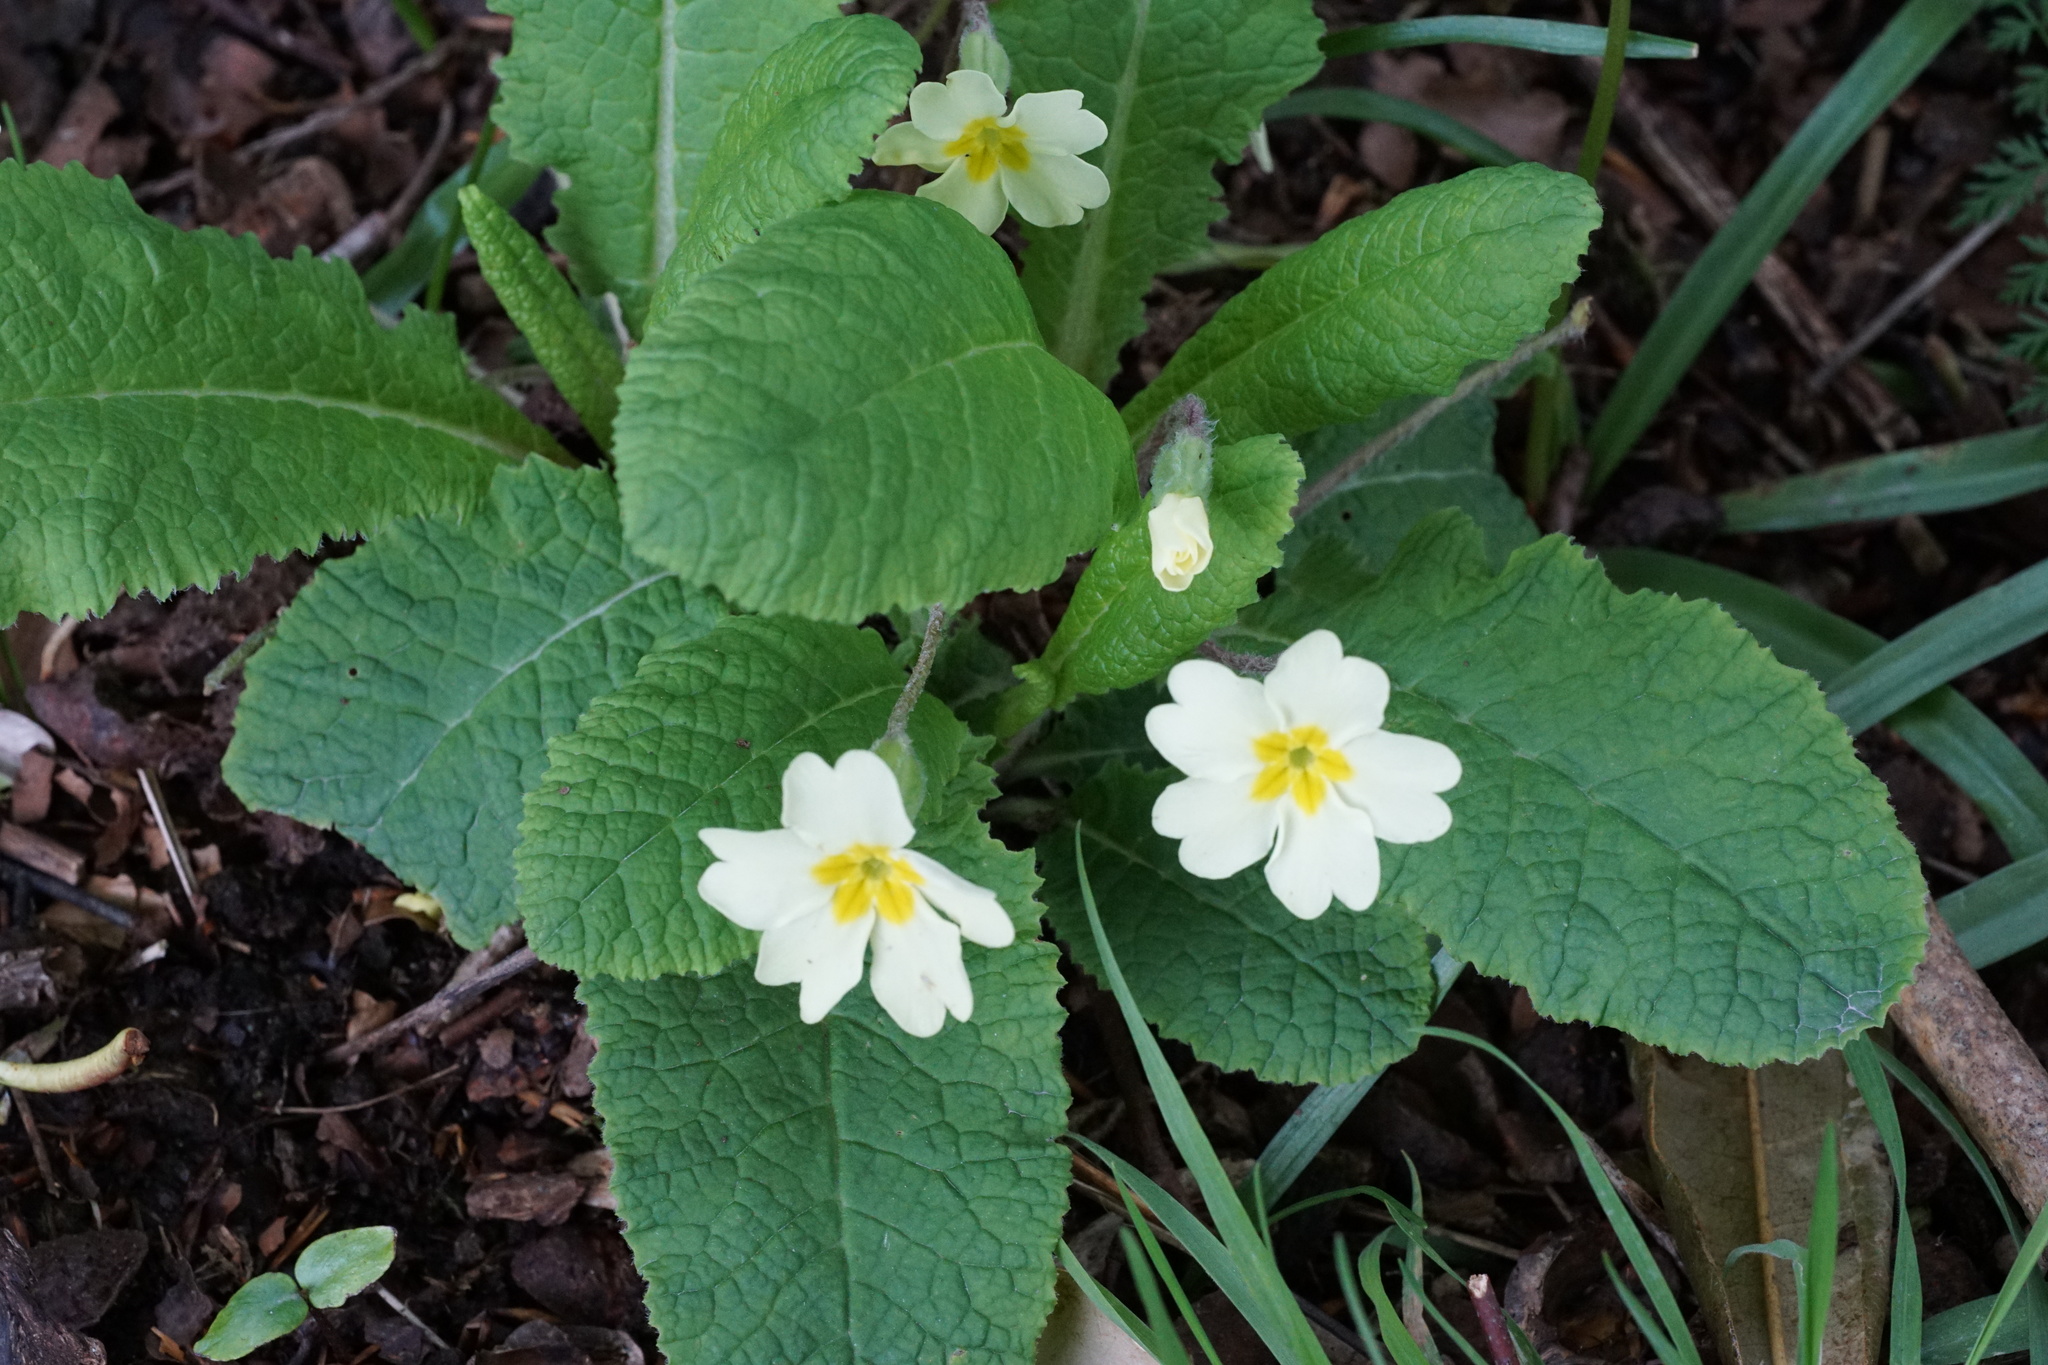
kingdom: Plantae
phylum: Tracheophyta
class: Magnoliopsida
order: Ericales
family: Primulaceae
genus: Primula
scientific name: Primula vulgaris
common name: Primrose
